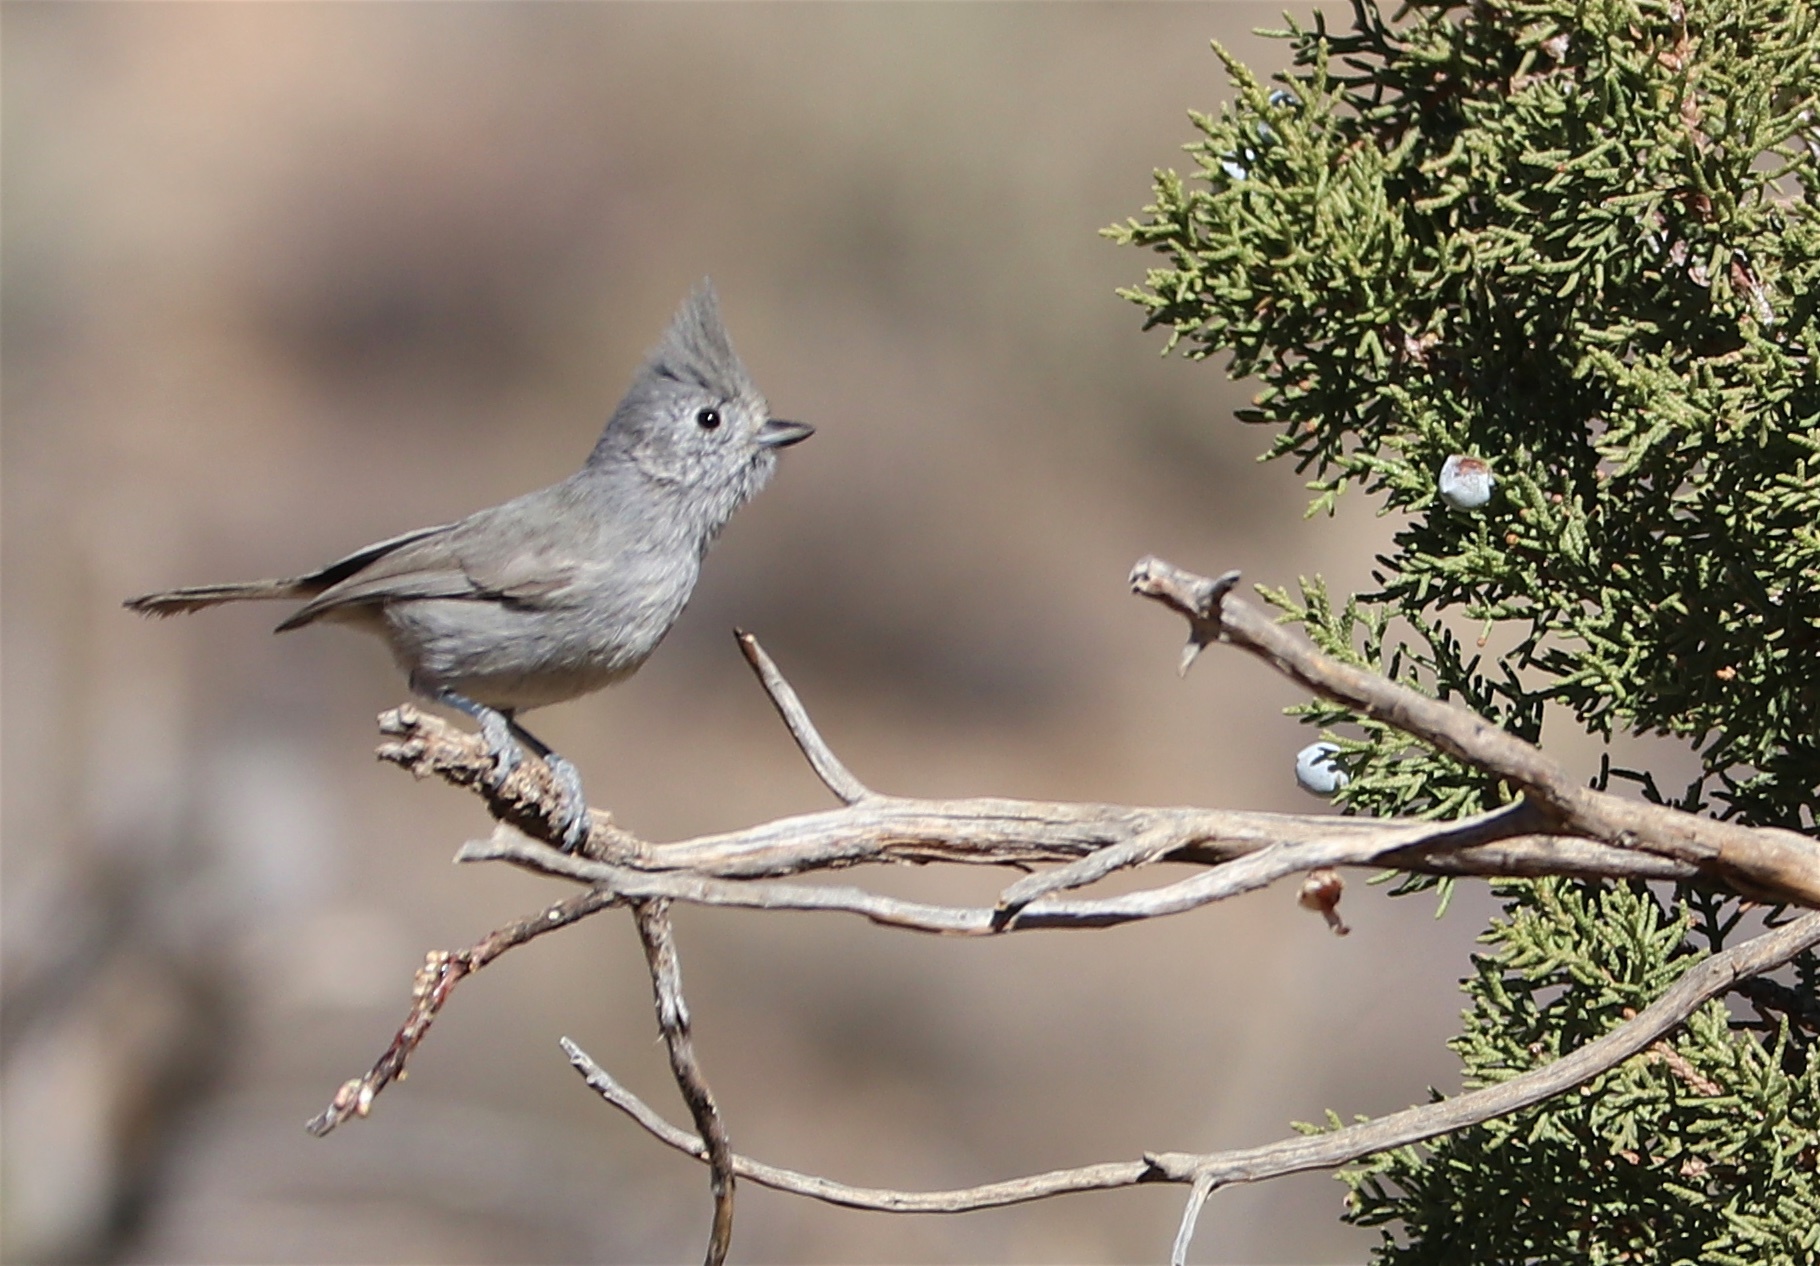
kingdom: Animalia
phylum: Chordata
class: Aves
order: Passeriformes
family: Paridae
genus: Baeolophus
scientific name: Baeolophus ridgwayi
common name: Juniper titmouse
